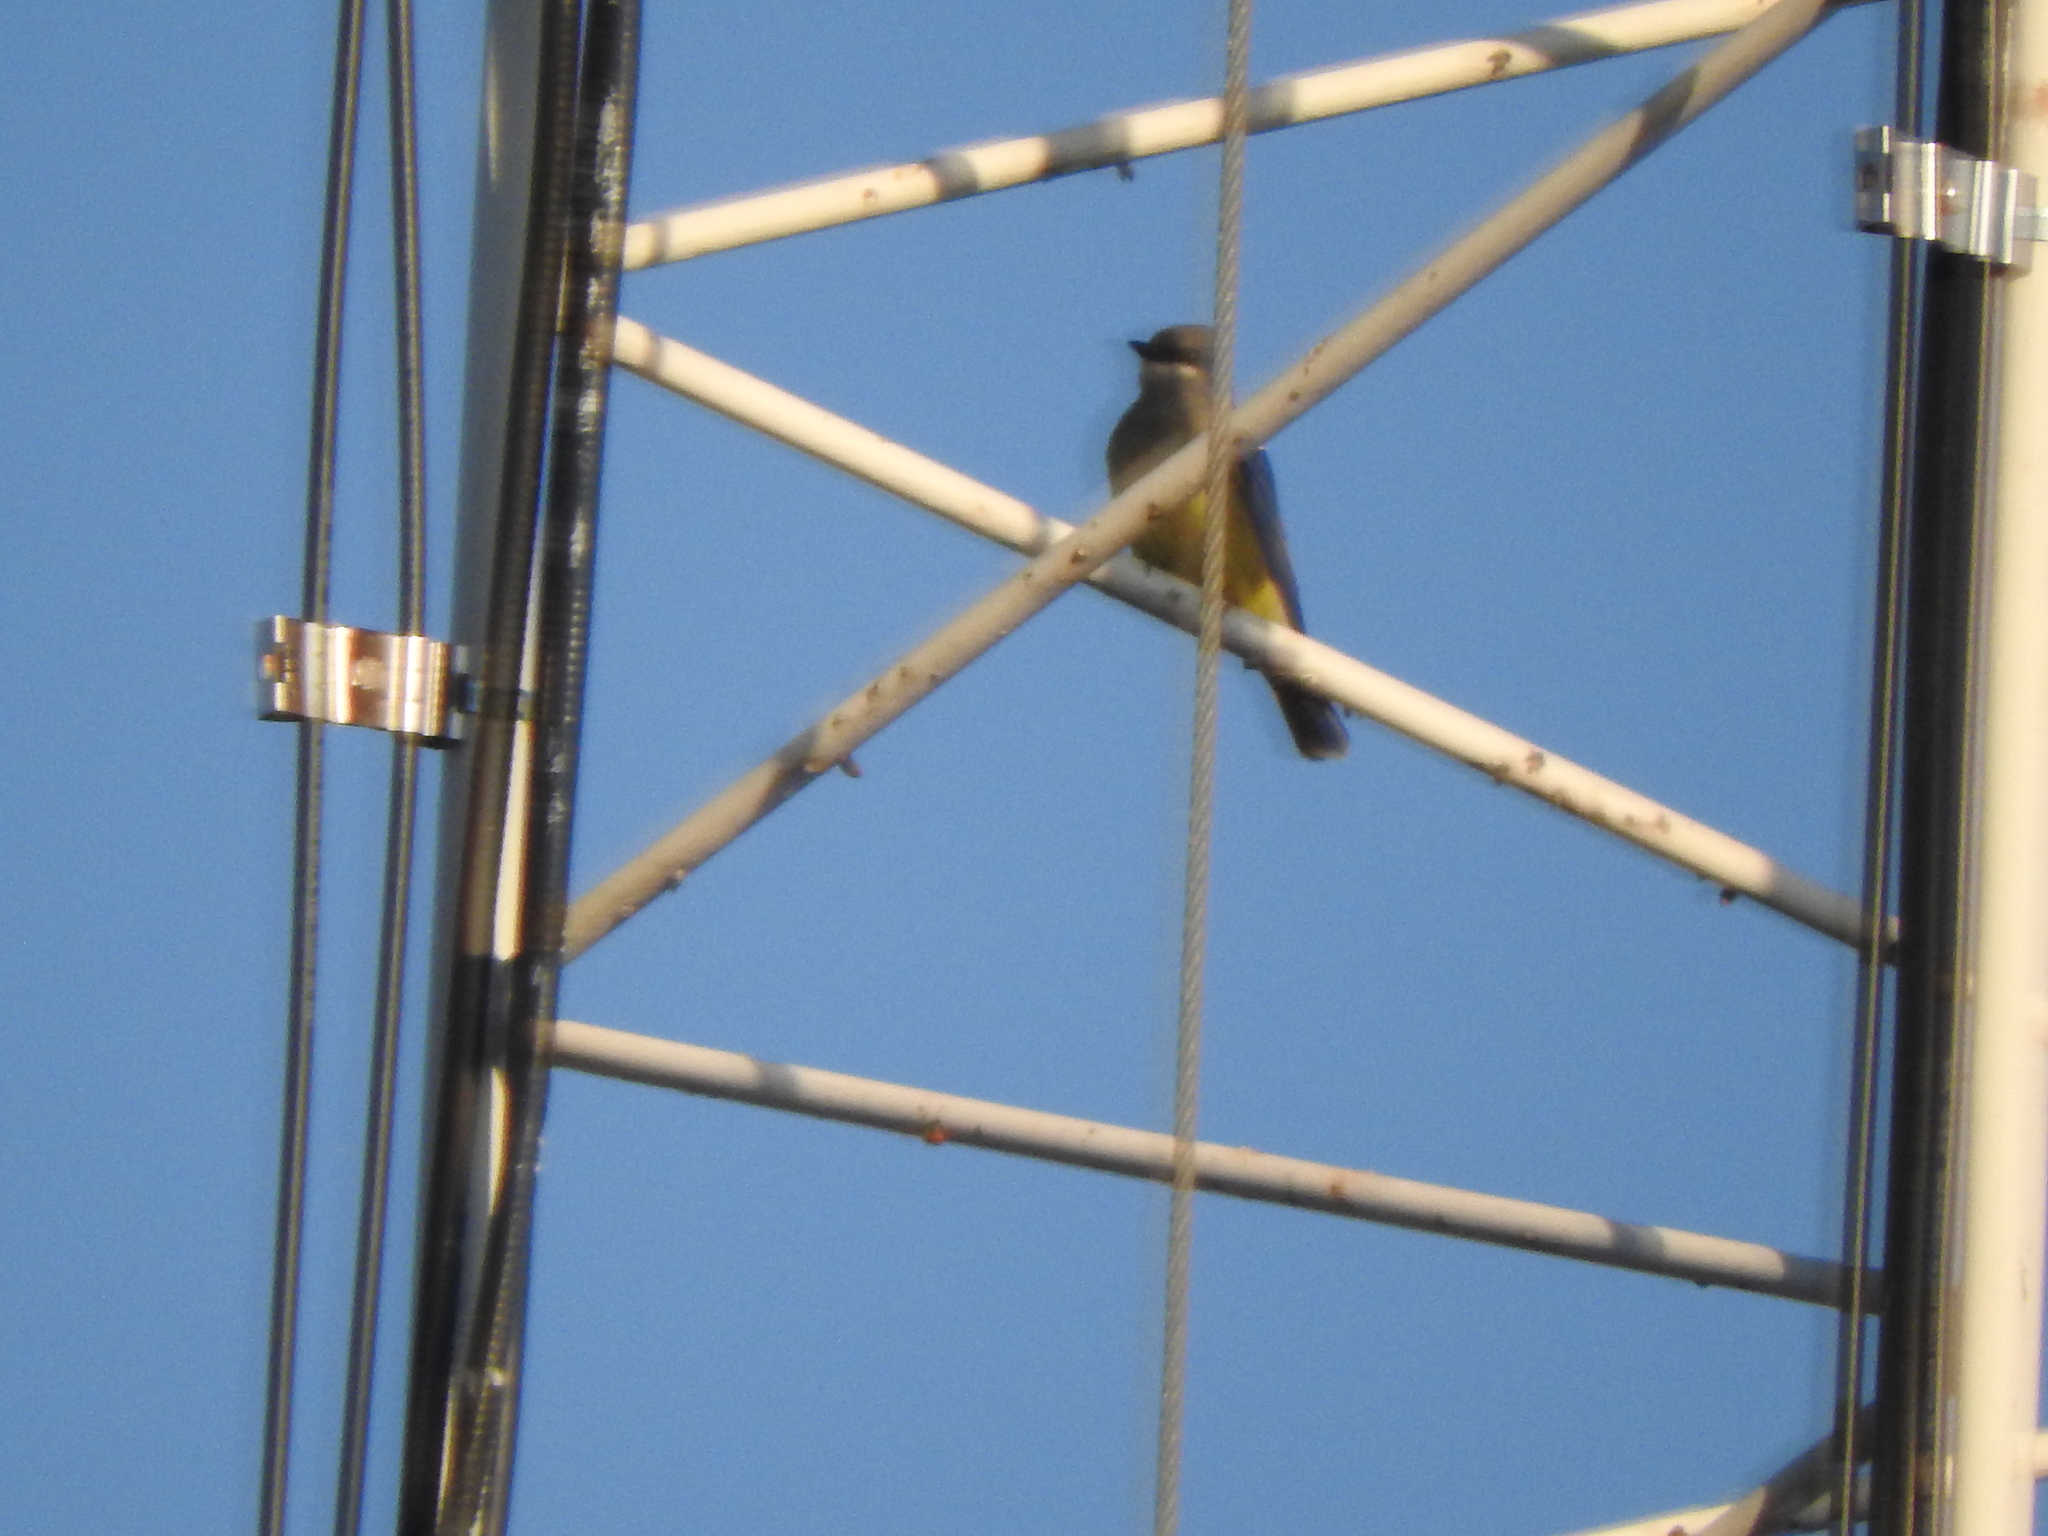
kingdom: Animalia
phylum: Chordata
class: Aves
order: Passeriformes
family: Tyrannidae
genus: Tyrannus
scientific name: Tyrannus vociferans
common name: Cassin's kingbird
